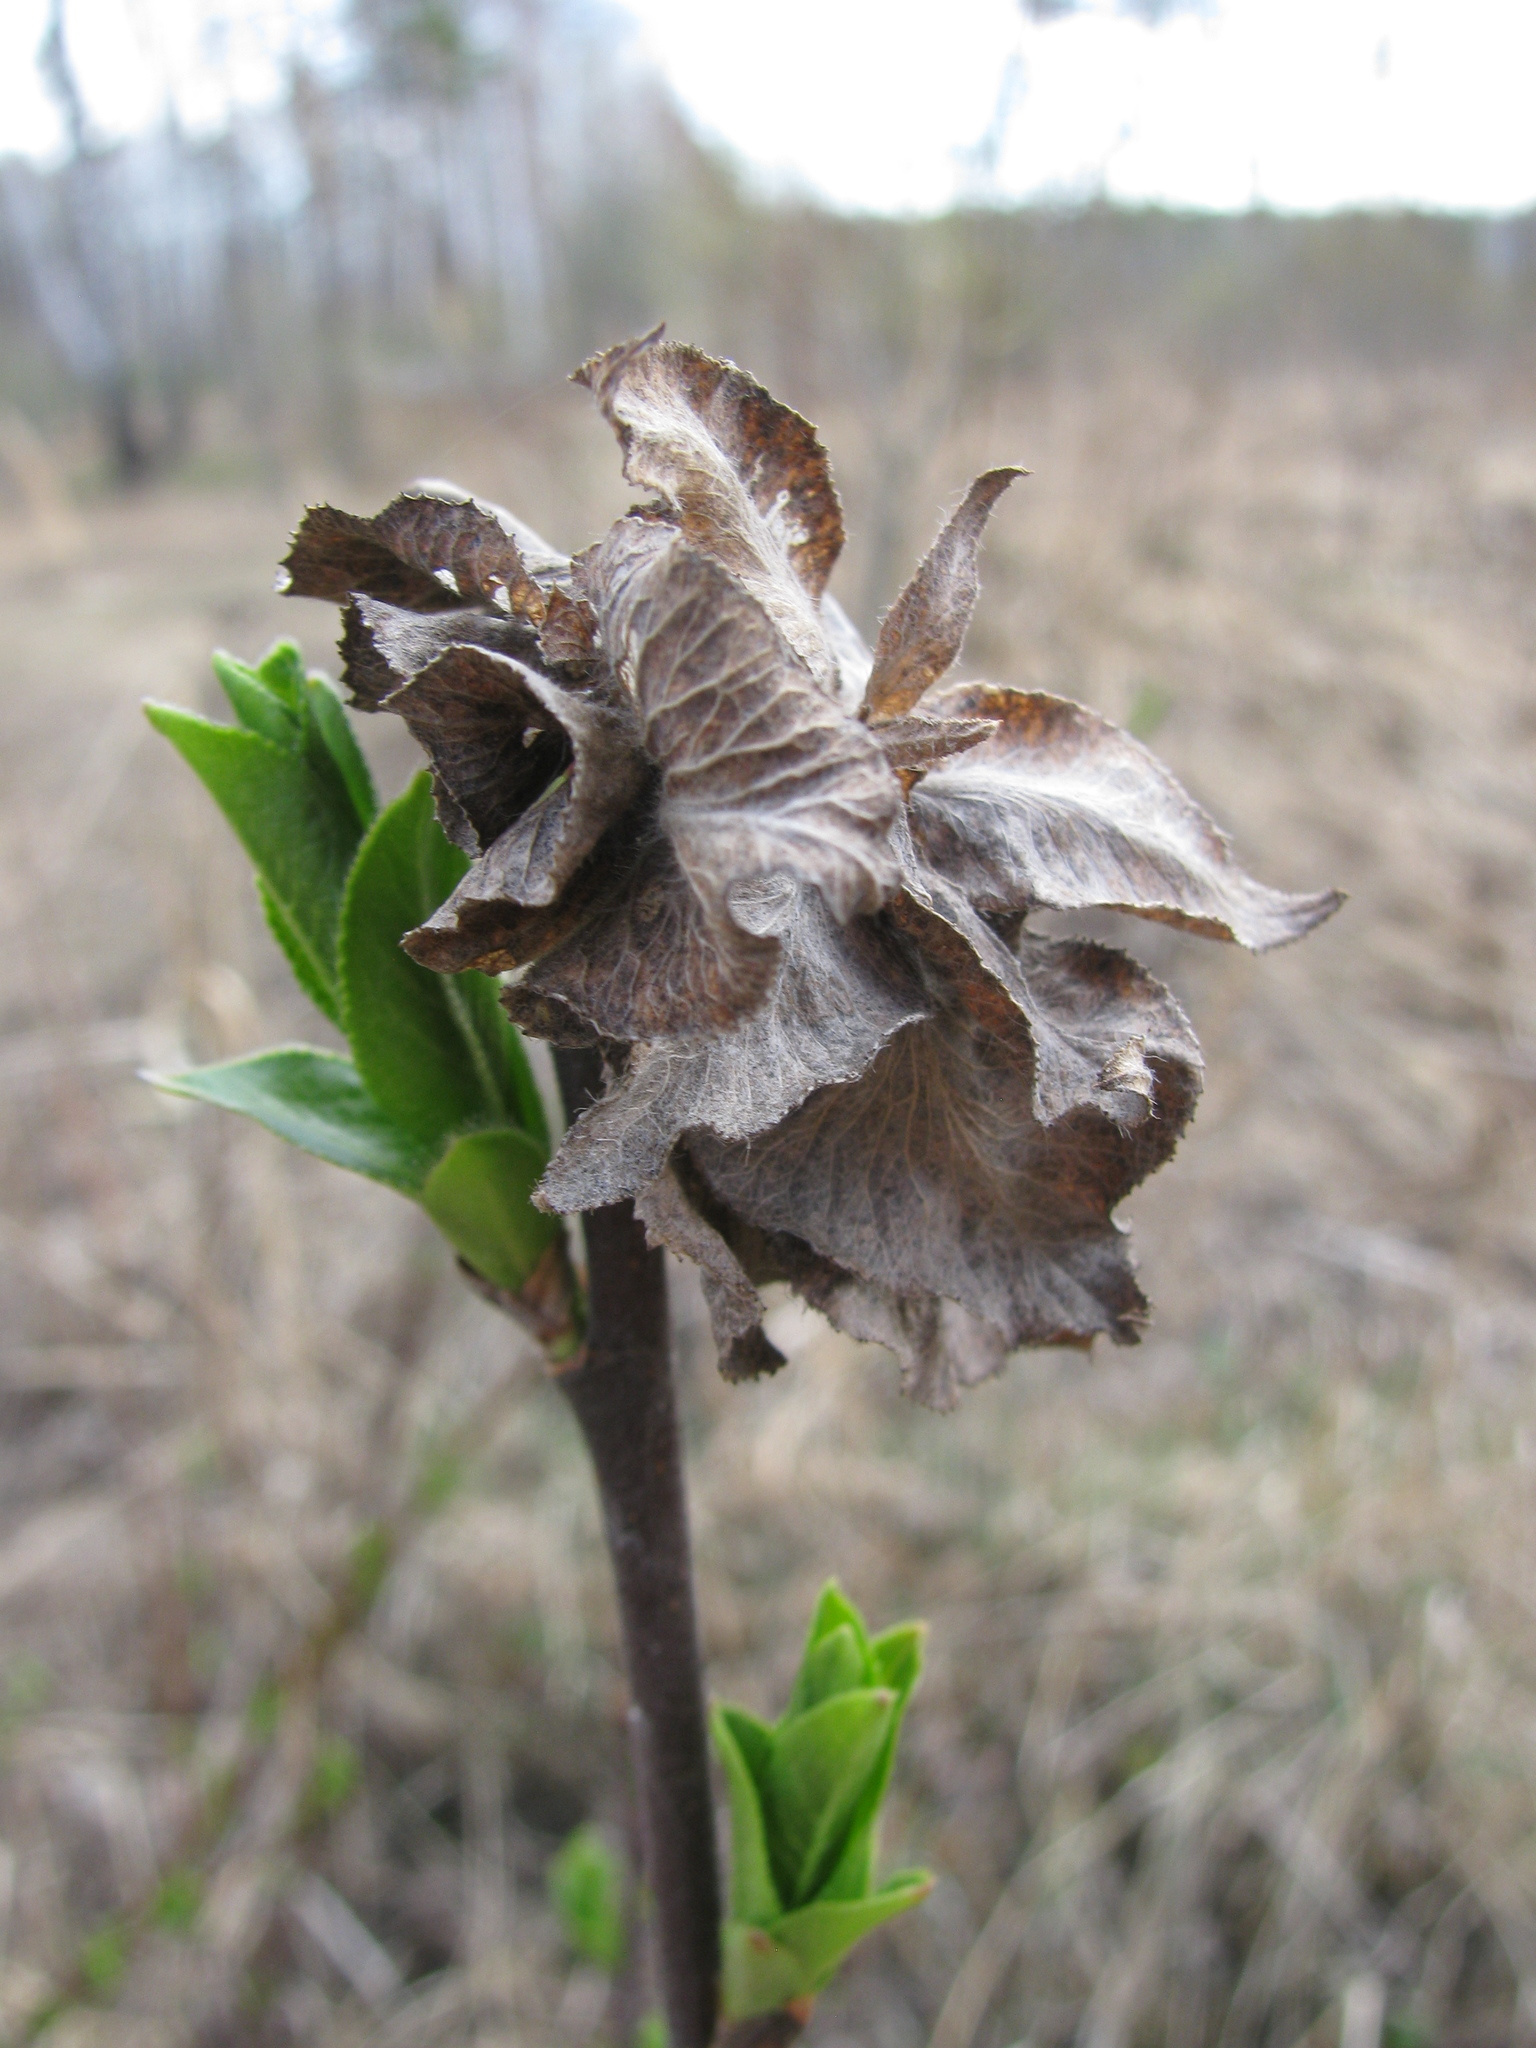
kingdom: Animalia
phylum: Arthropoda
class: Insecta
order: Diptera
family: Cecidomyiidae
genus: Rabdophaga
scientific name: Rabdophaga rosaria
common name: Willow rose gall midge
